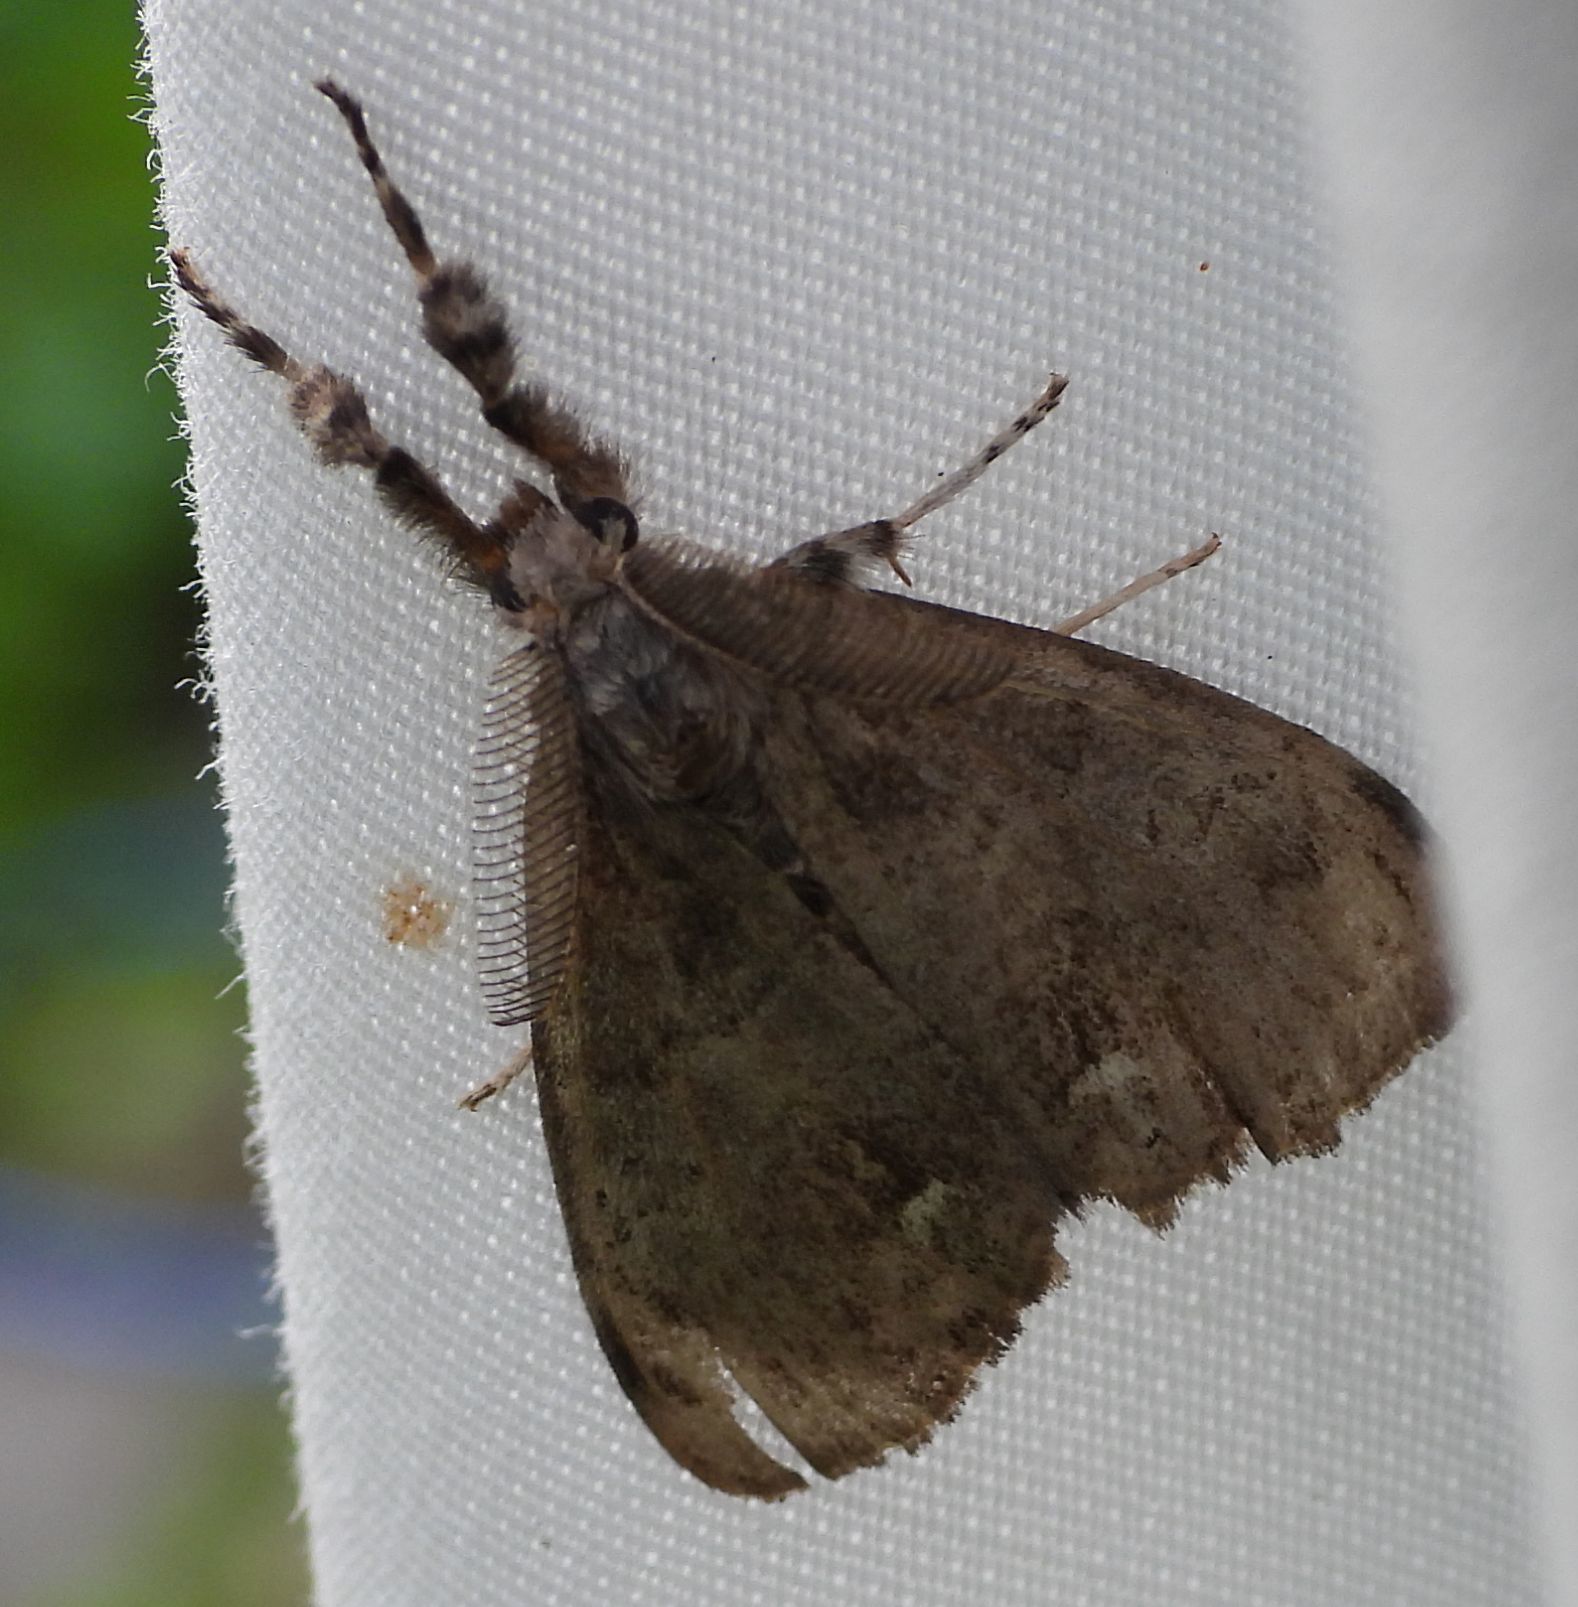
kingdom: Animalia
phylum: Arthropoda
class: Insecta
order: Lepidoptera
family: Erebidae
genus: Orgyia
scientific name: Orgyia leucostigma
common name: White-marked tussock moth
